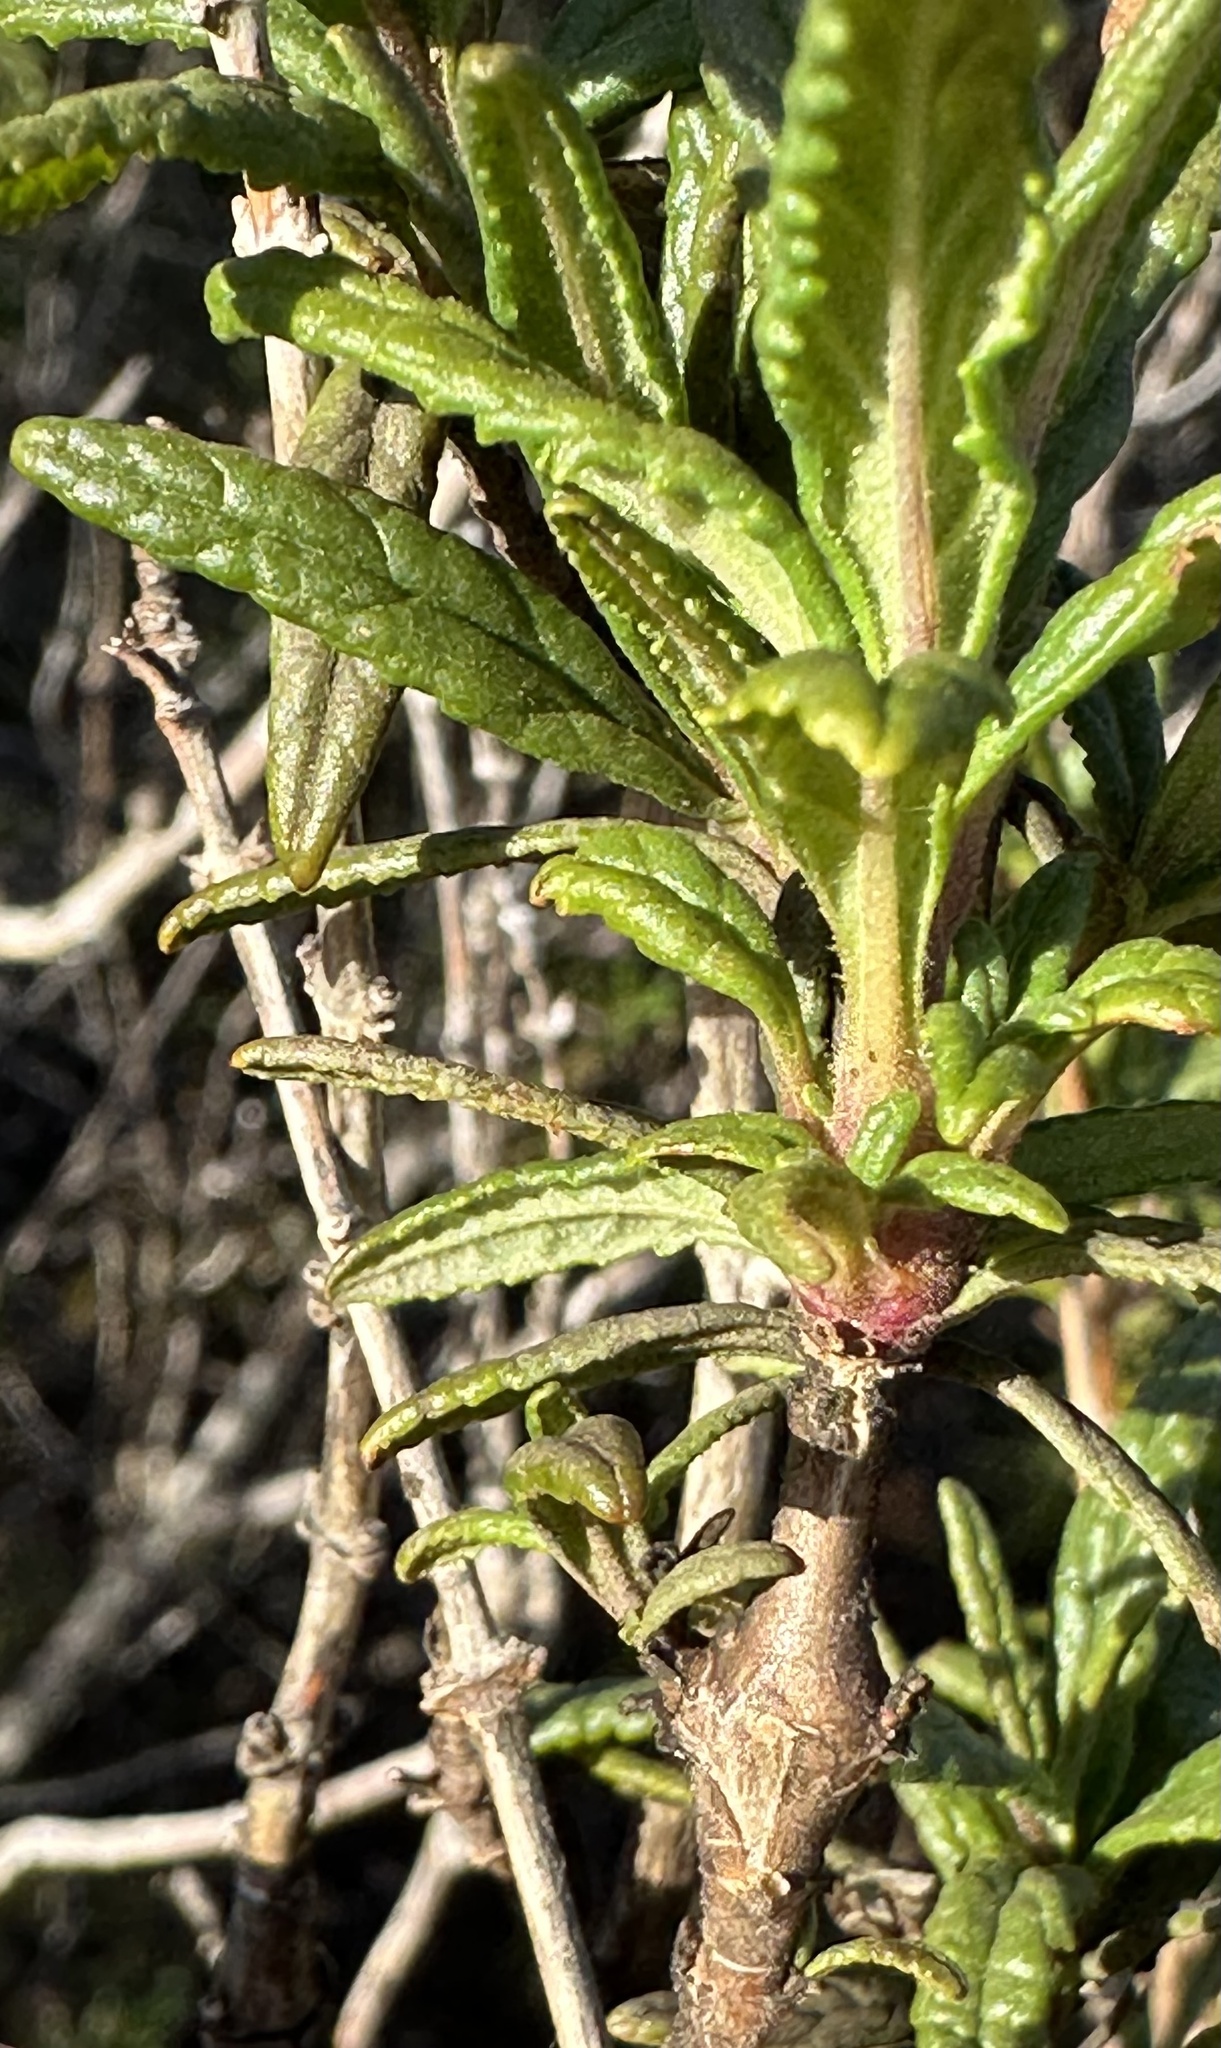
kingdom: Animalia
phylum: Arthropoda
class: Insecta
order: Diptera
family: Cecidomyiidae
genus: Neolasioptera
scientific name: Neolasioptera mimuli
